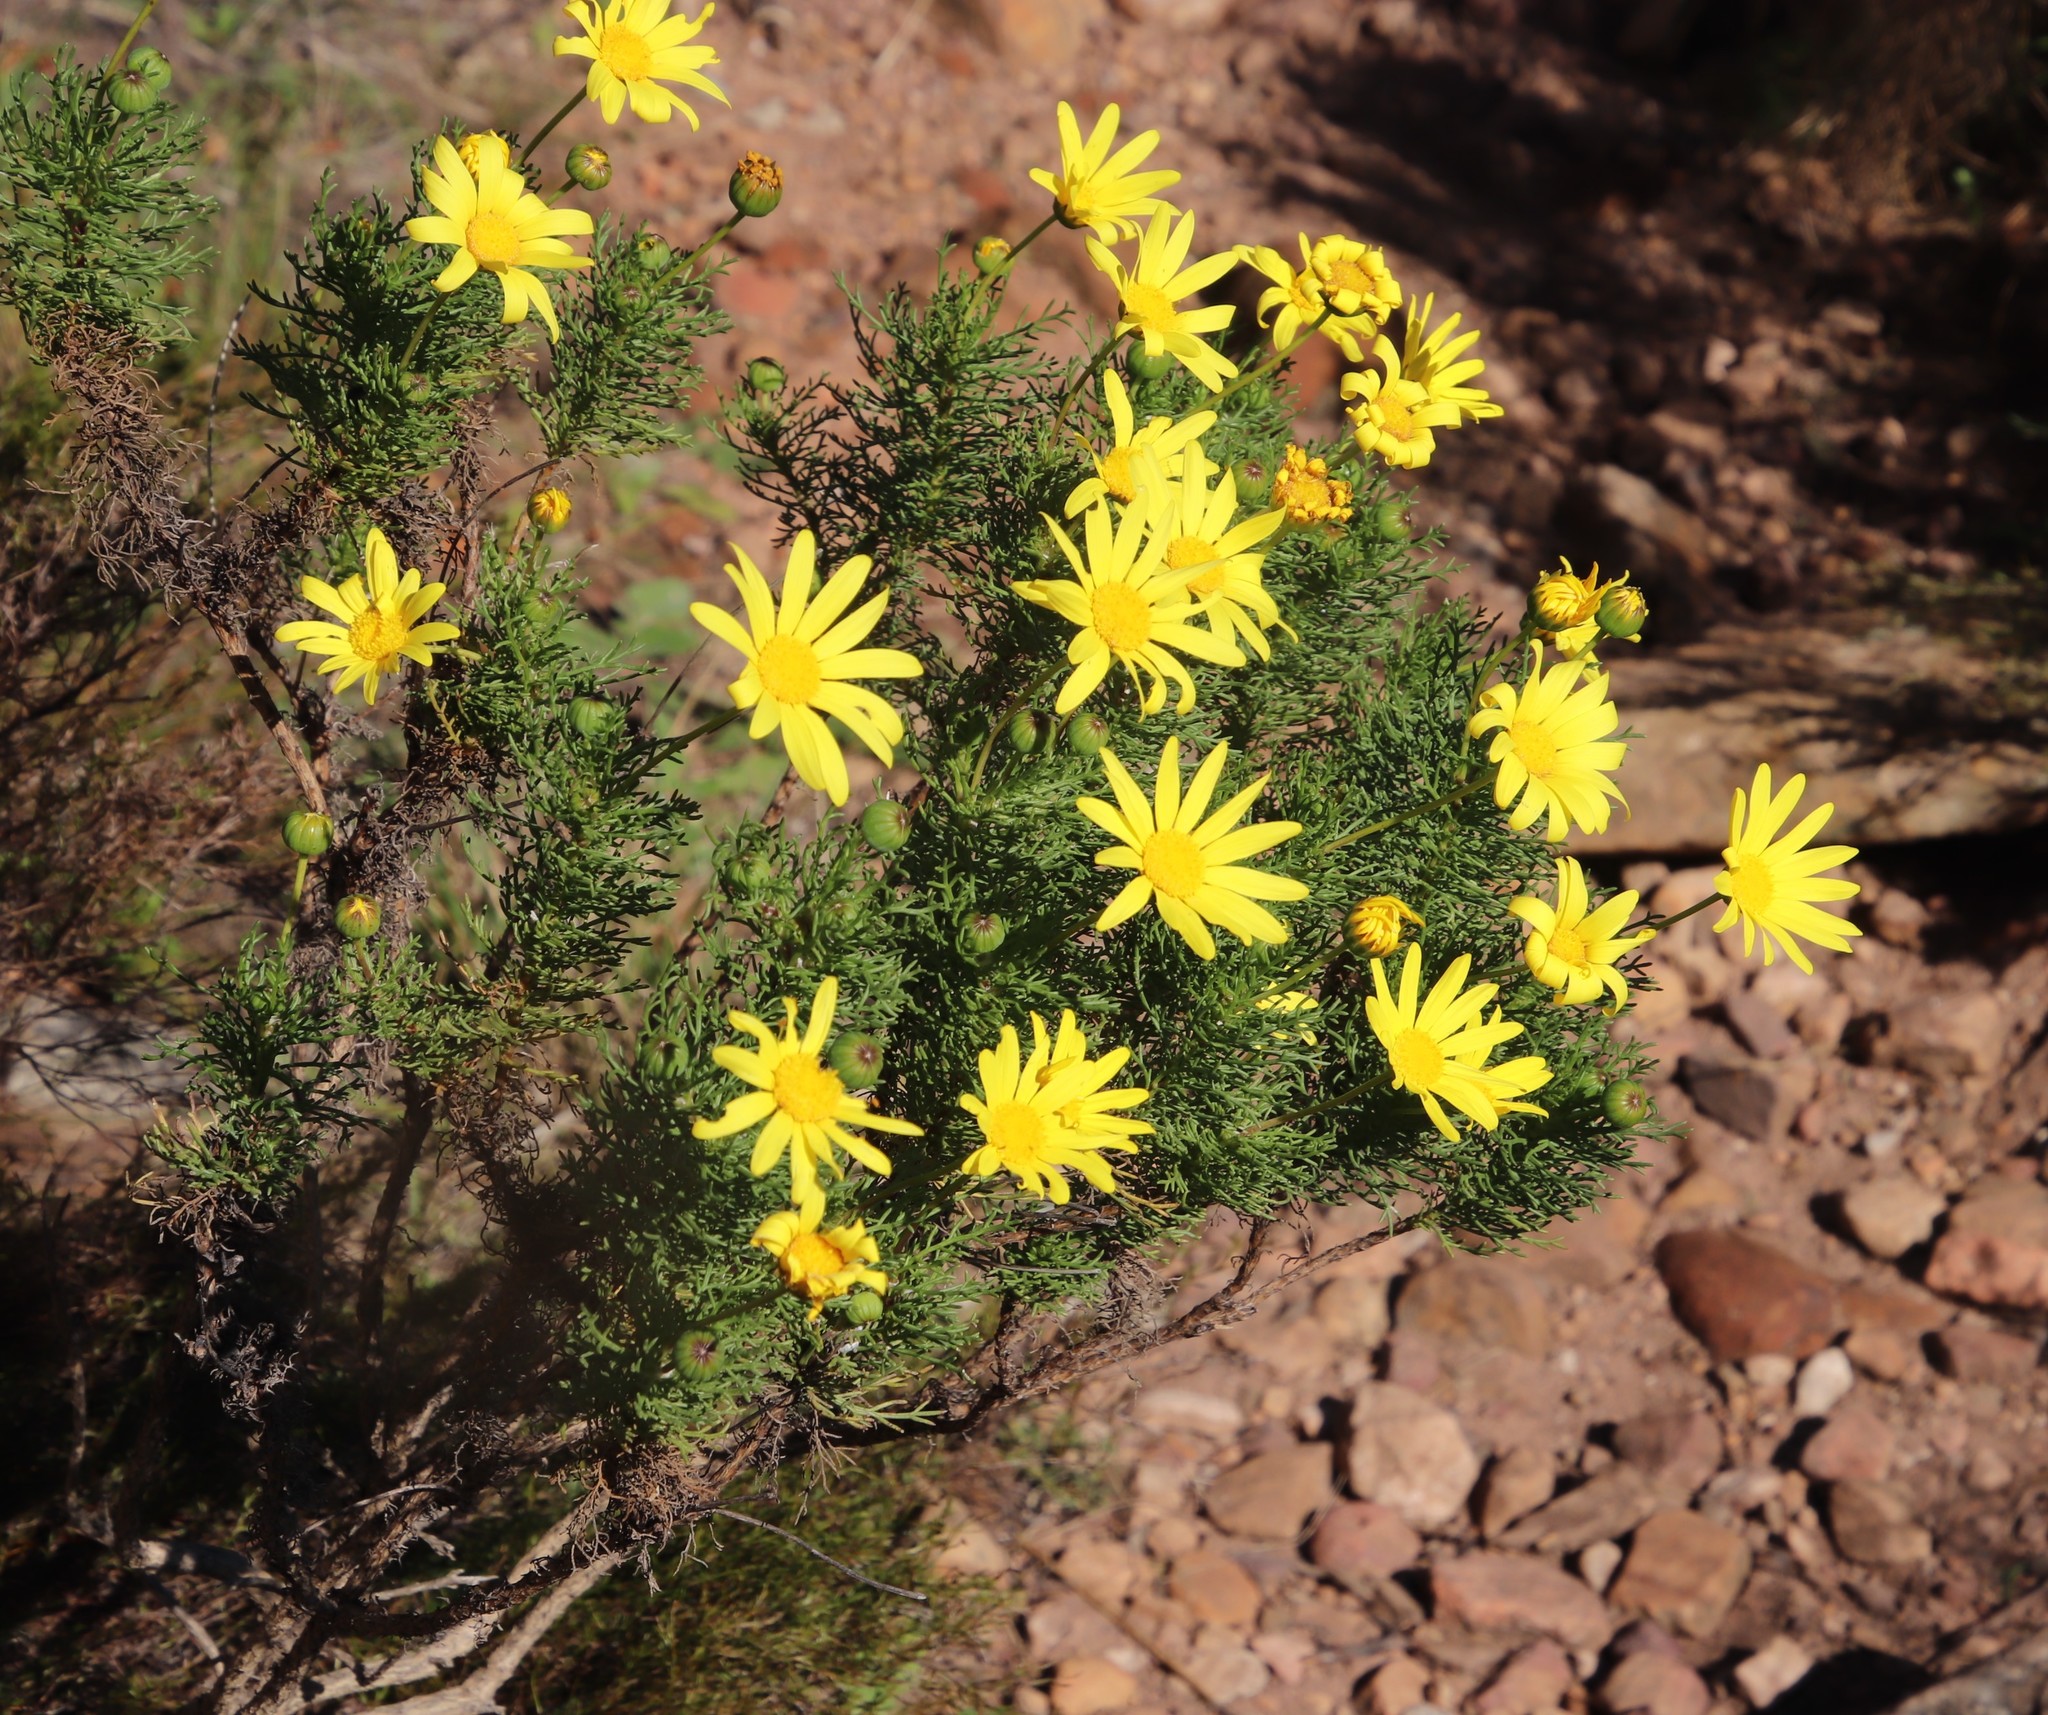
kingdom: Plantae
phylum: Tracheophyta
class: Magnoliopsida
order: Asterales
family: Asteraceae
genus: Euryops
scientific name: Euryops abrotanifolius
